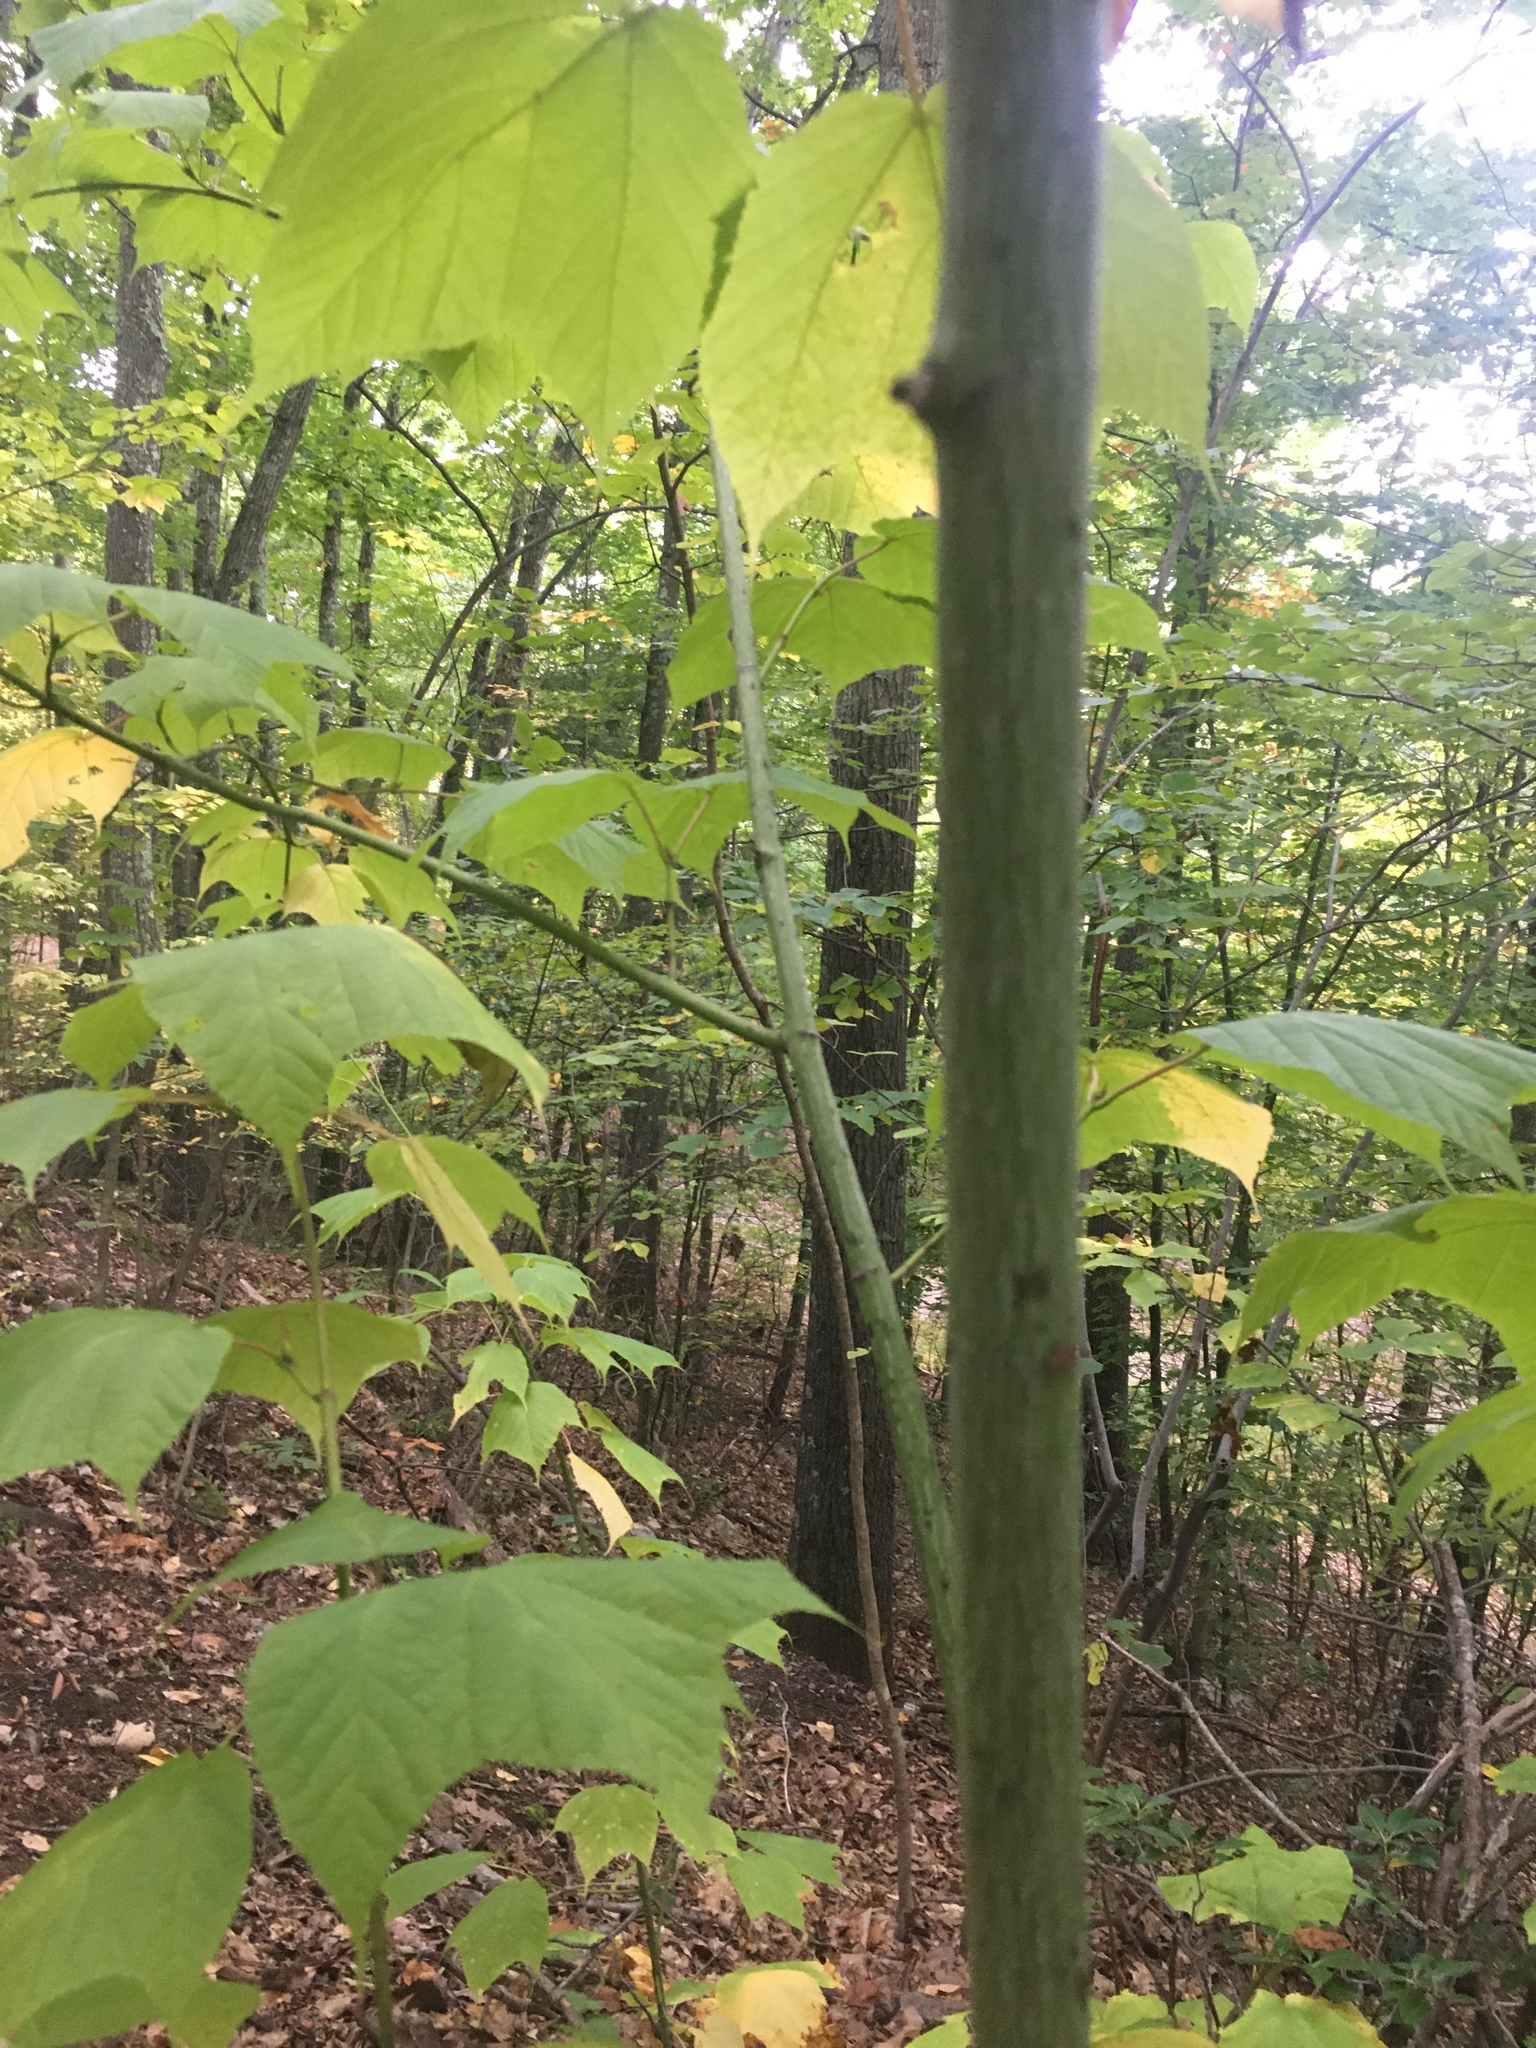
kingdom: Plantae
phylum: Tracheophyta
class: Magnoliopsida
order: Sapindales
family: Sapindaceae
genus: Acer
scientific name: Acer pensylvanicum
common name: Moosewood
